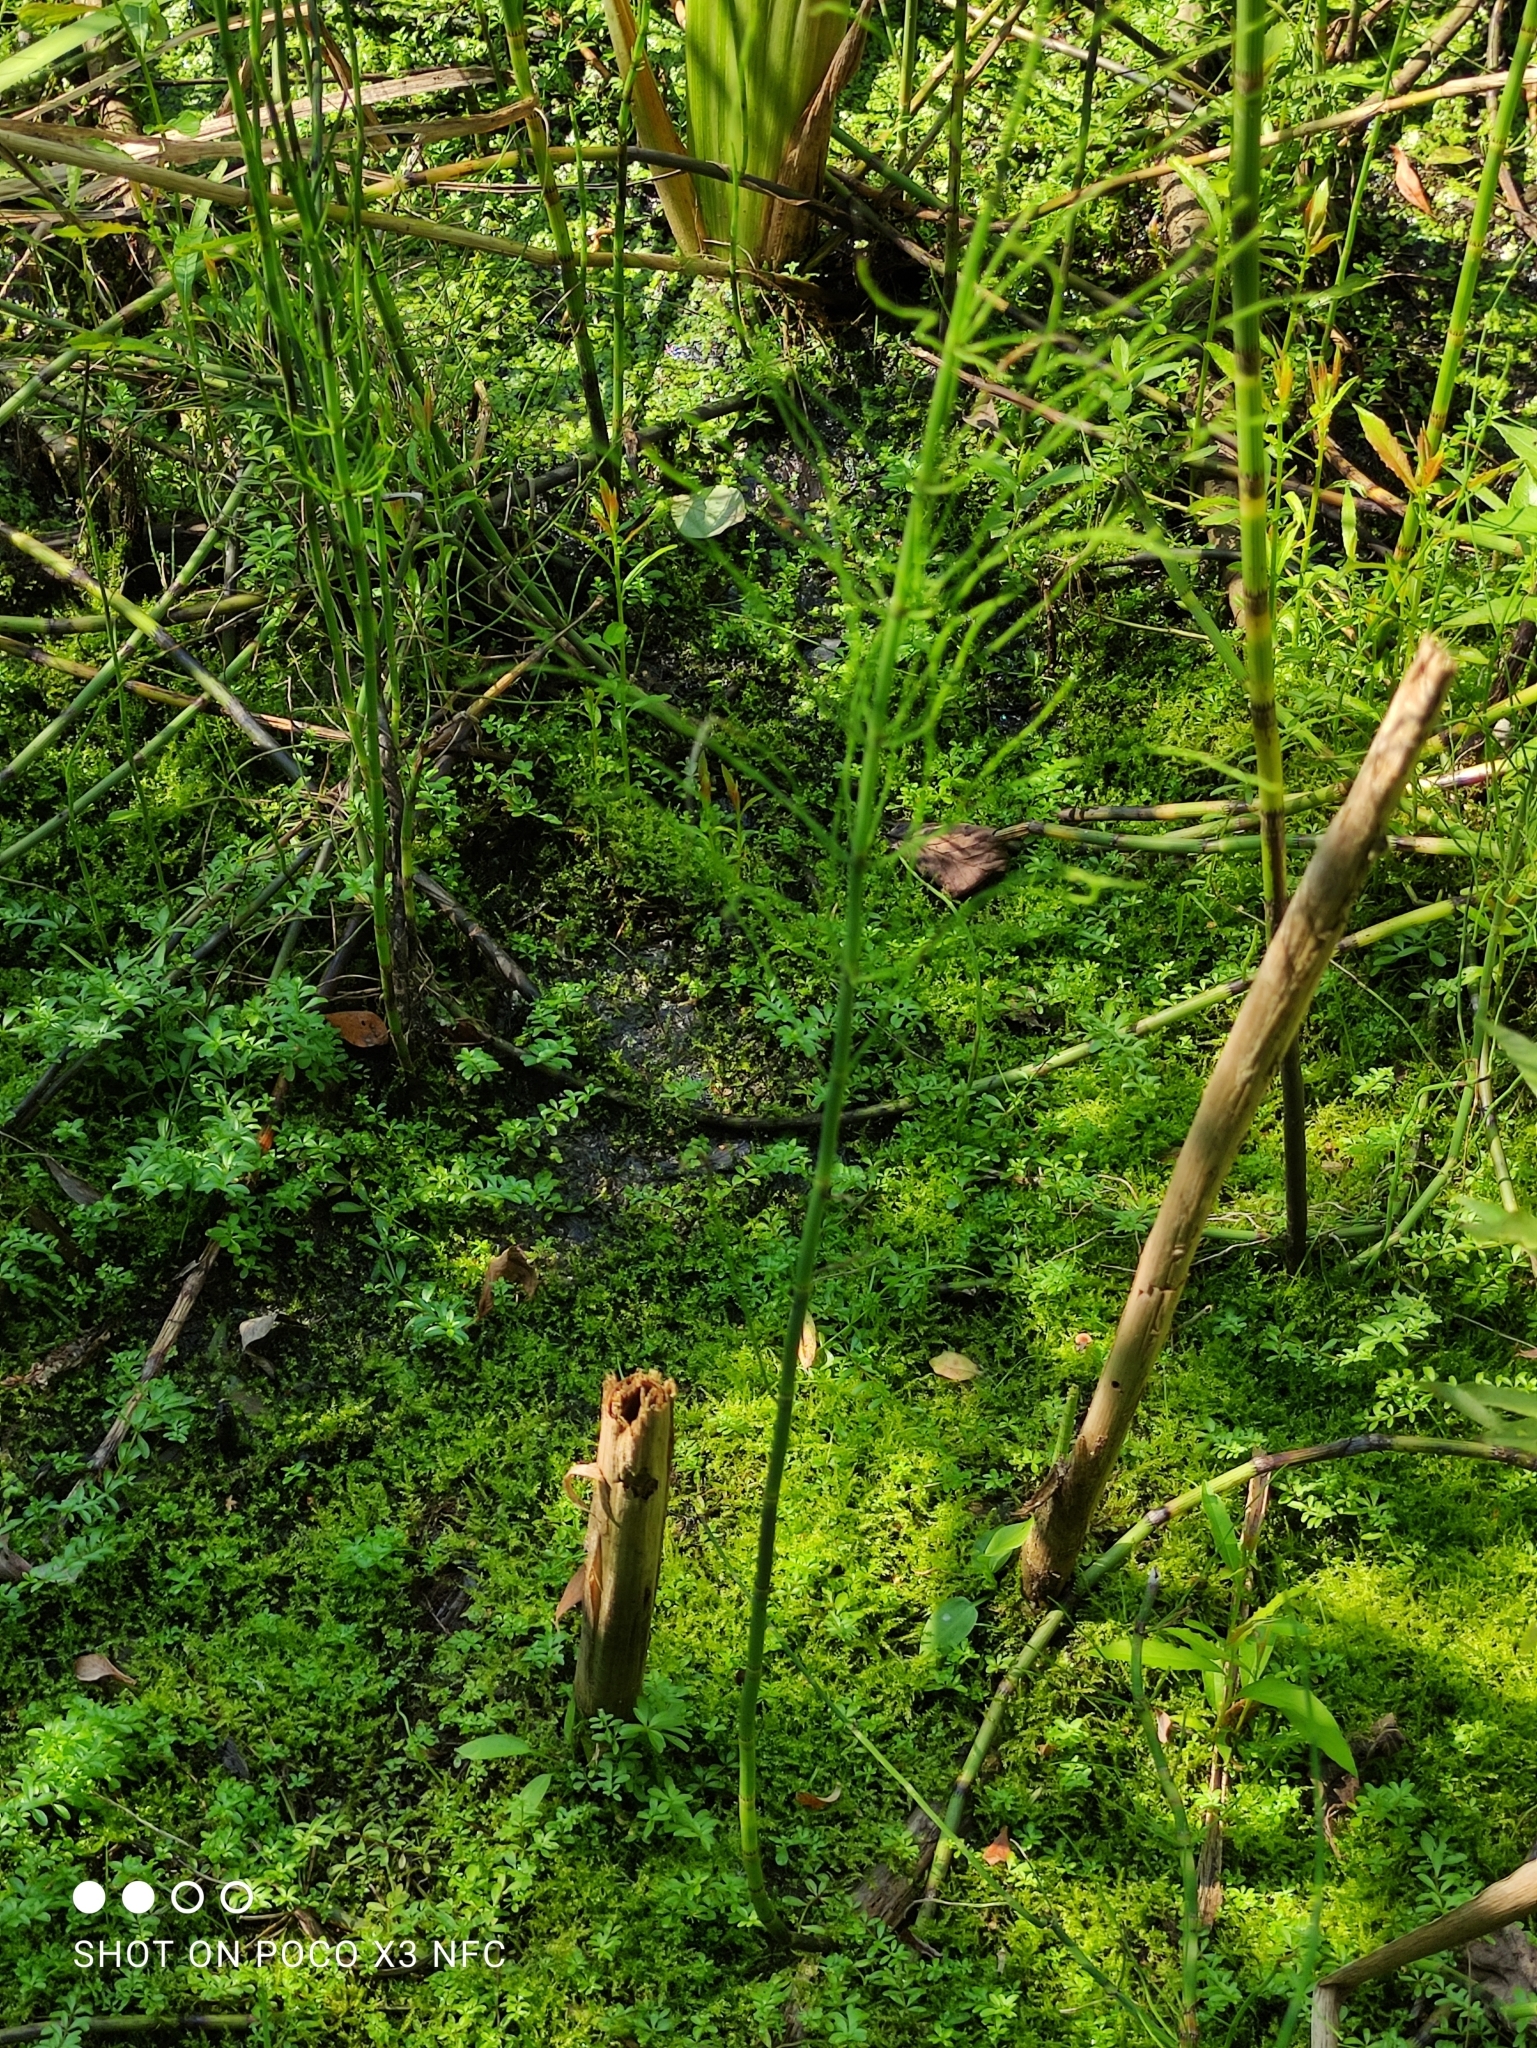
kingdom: Plantae
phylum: Tracheophyta
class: Polypodiopsida
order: Equisetales
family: Equisetaceae
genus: Equisetum
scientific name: Equisetum fluviatile
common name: Water horsetail
